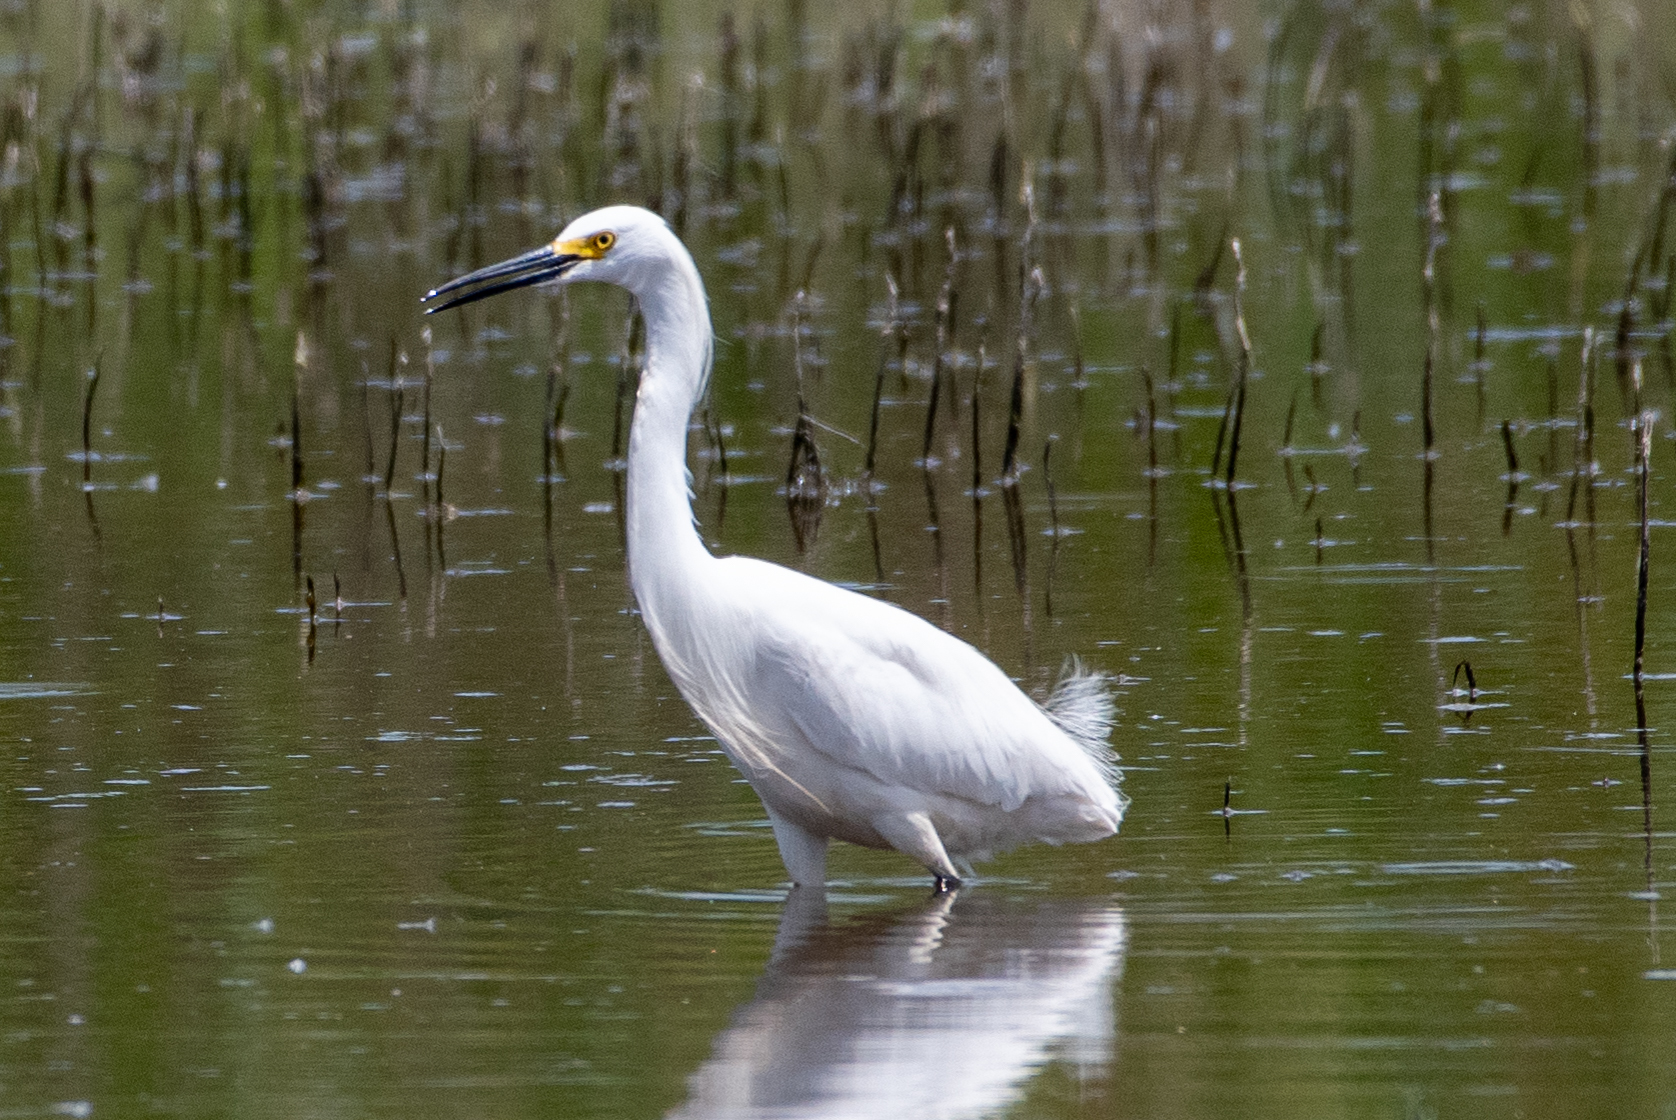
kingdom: Animalia
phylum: Chordata
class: Aves
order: Pelecaniformes
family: Ardeidae
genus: Egretta
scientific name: Egretta thula
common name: Snowy egret
